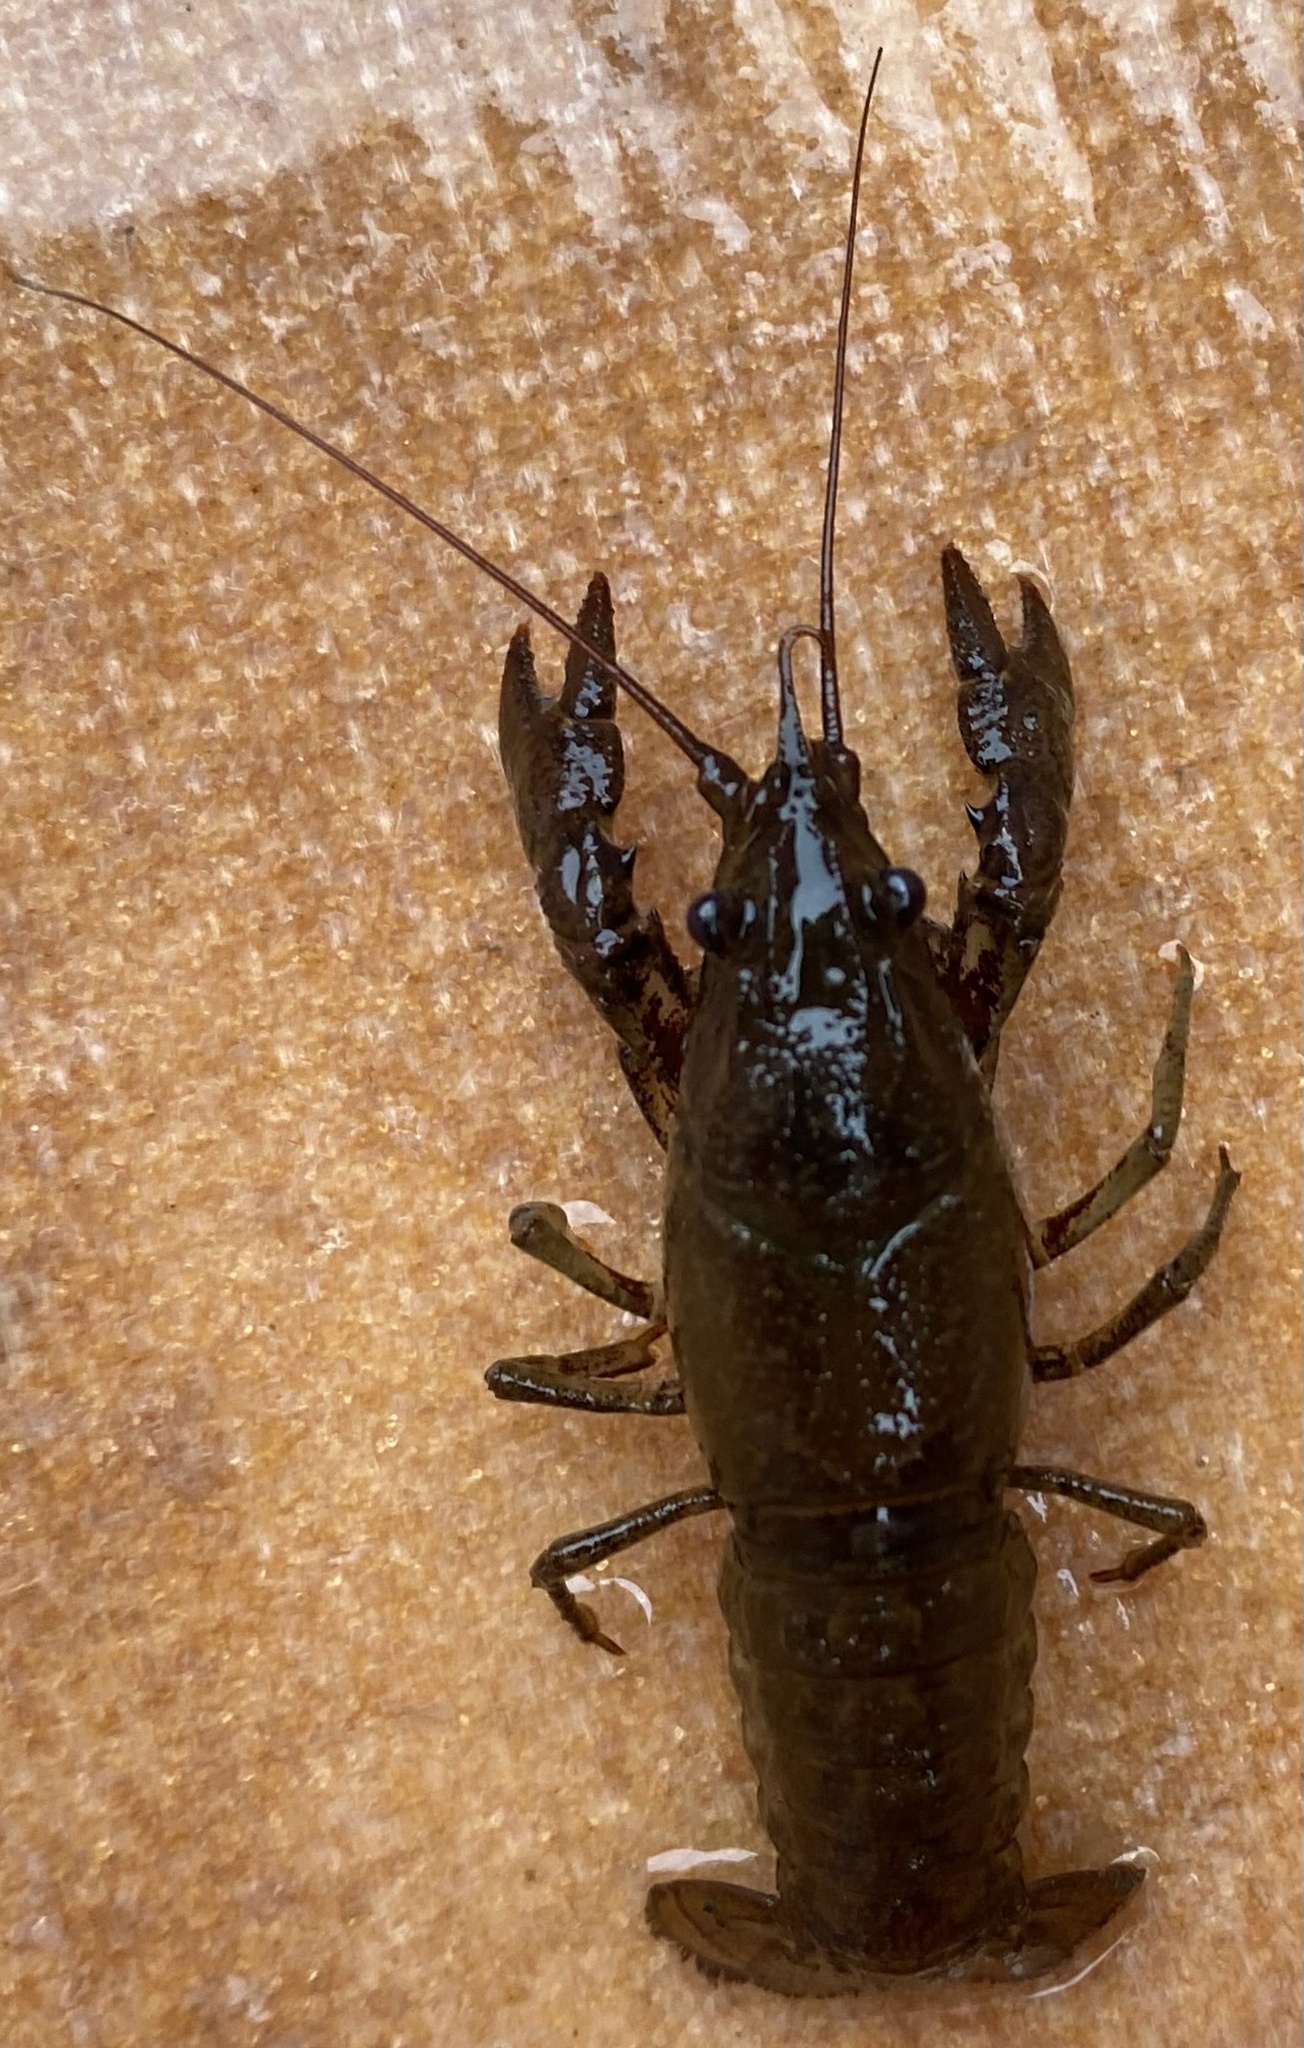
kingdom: Animalia
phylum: Arthropoda
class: Malacostraca
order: Decapoda
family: Cambaridae
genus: Faxonius
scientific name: Faxonius virilis
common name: Virile crayfish
